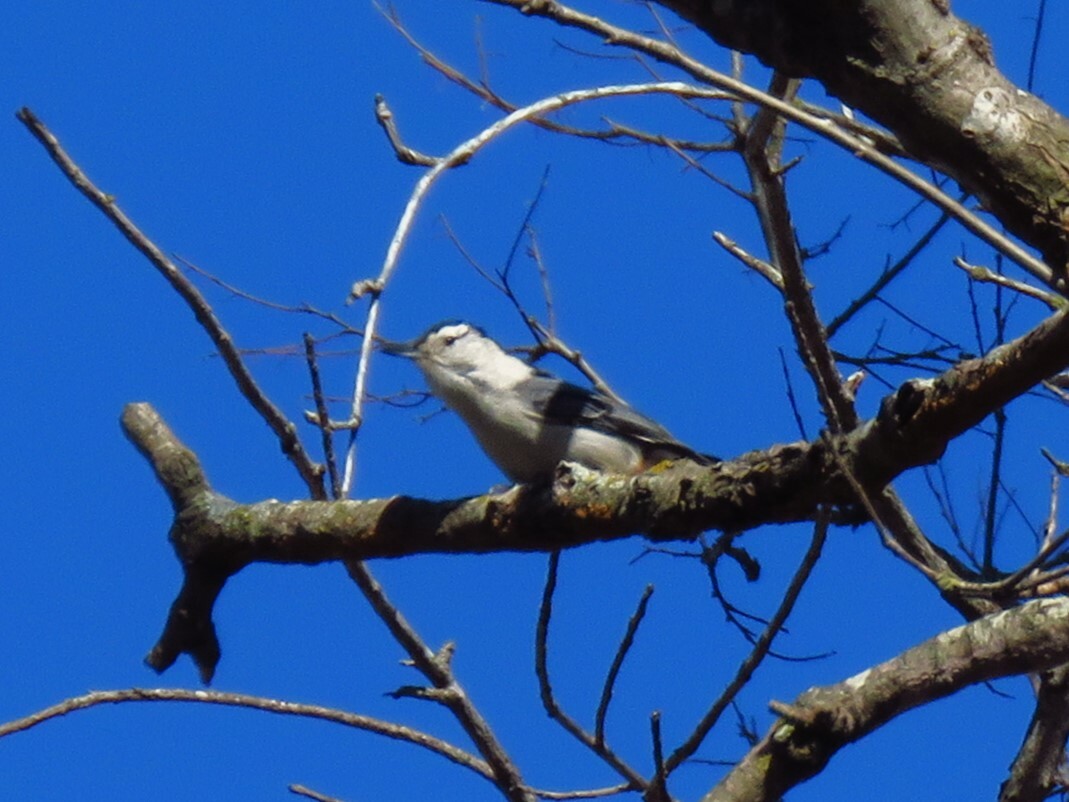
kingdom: Animalia
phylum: Chordata
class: Aves
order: Passeriformes
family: Sittidae
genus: Sitta
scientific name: Sitta carolinensis
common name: White-breasted nuthatch
